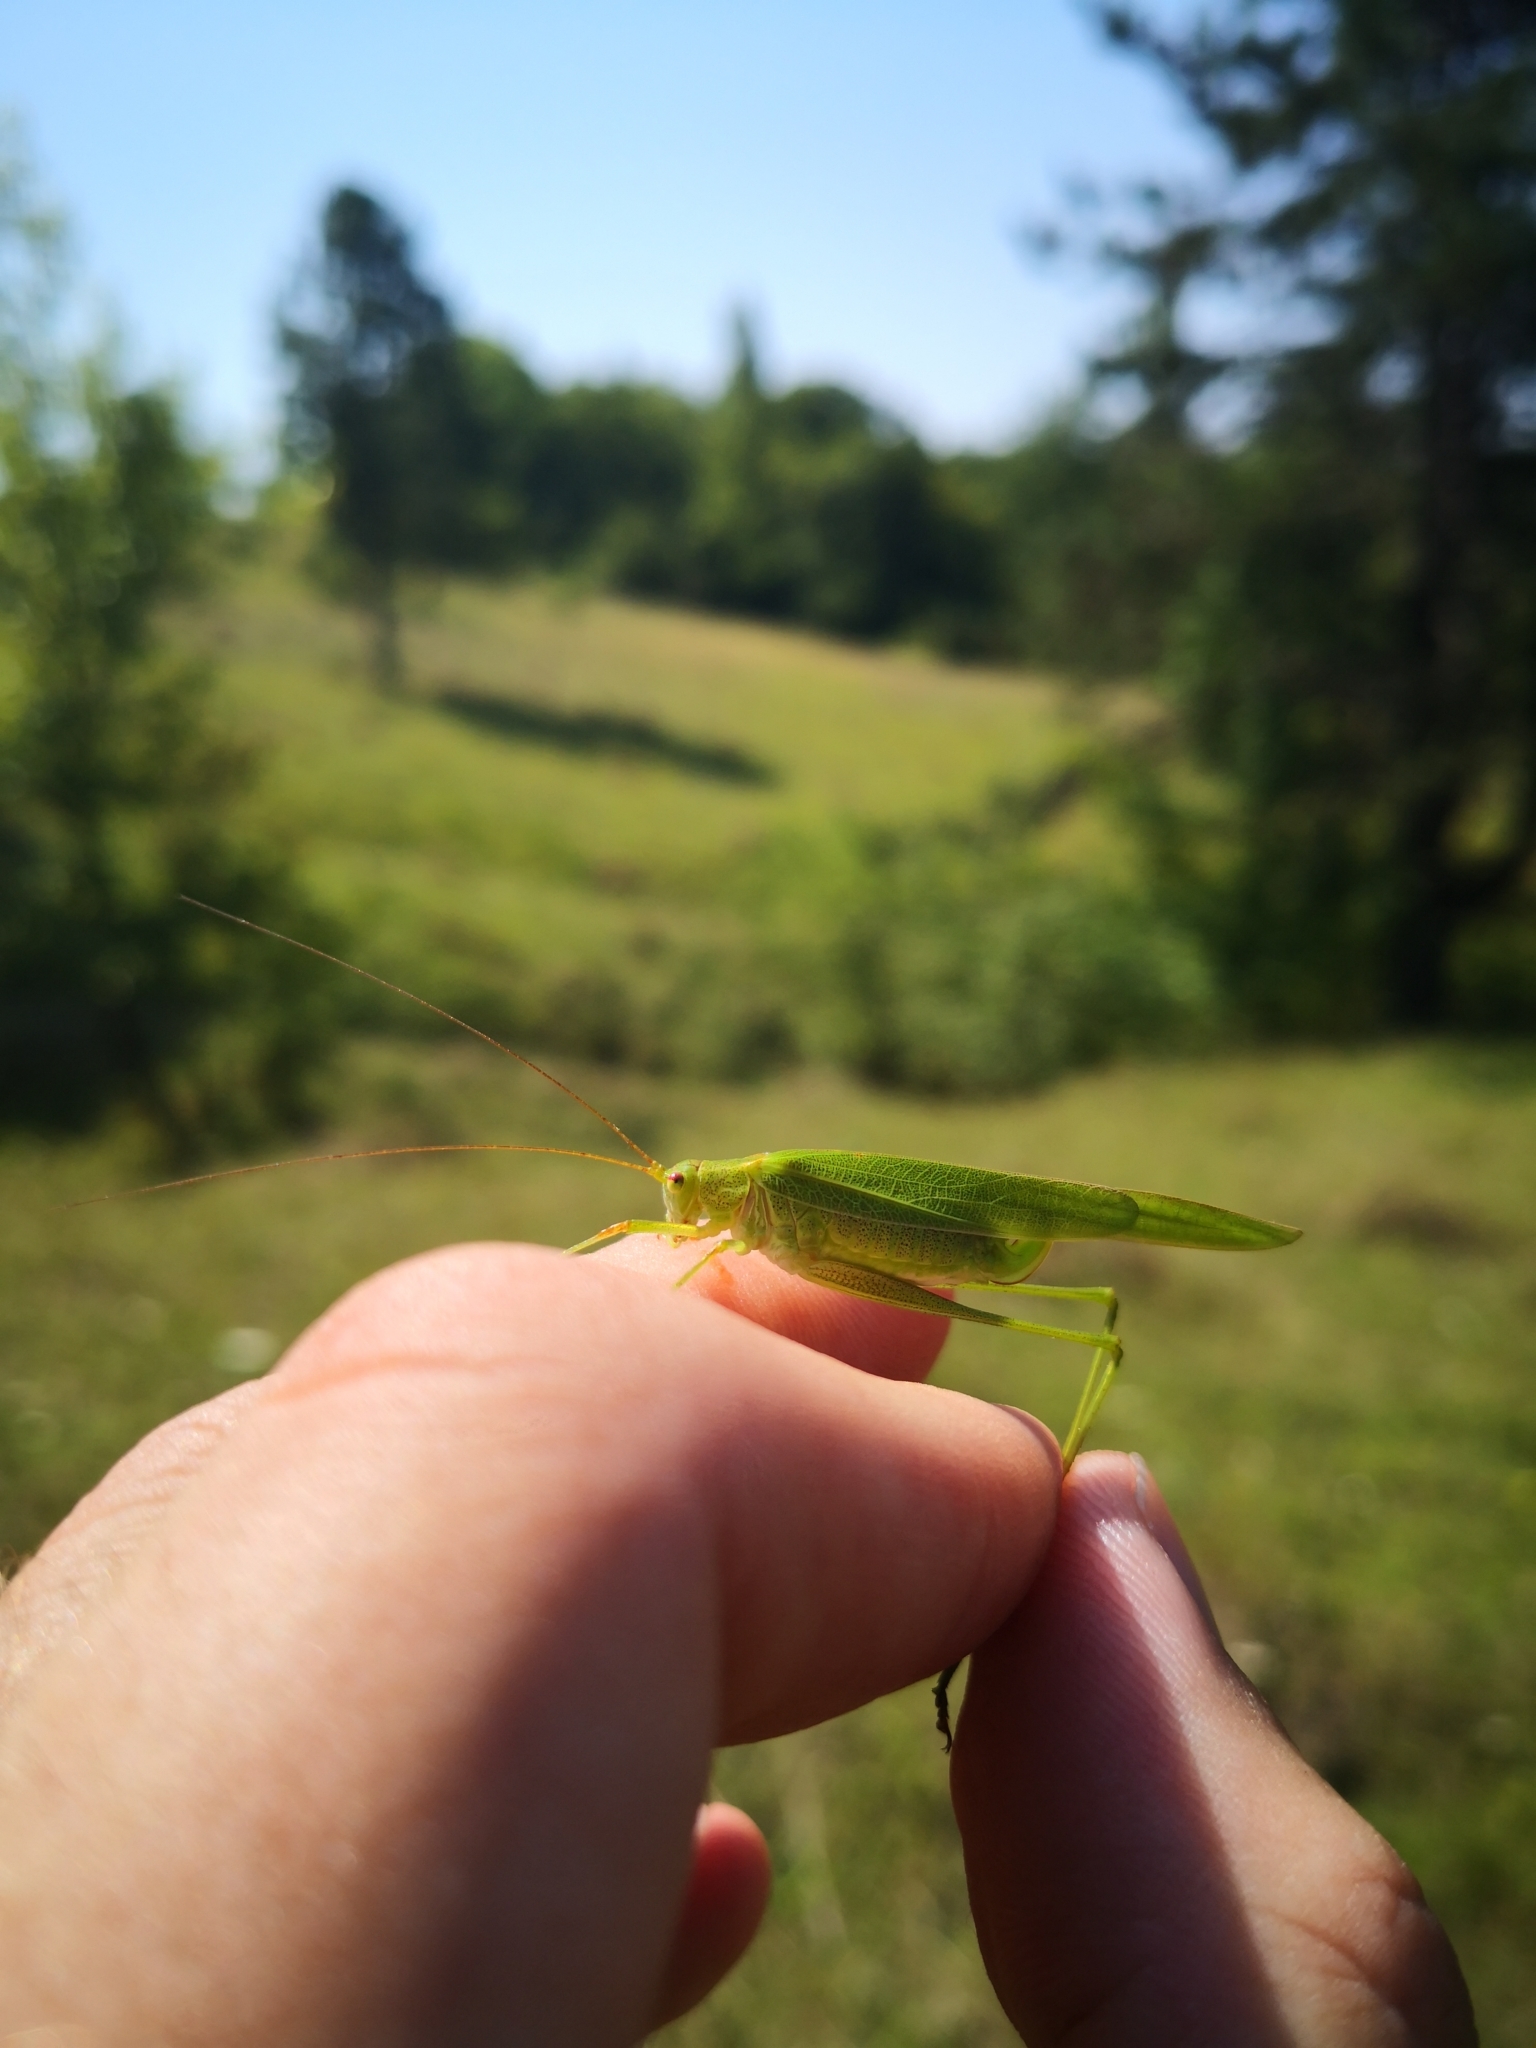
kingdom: Animalia
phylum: Arthropoda
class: Insecta
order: Orthoptera
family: Tettigoniidae
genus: Phaneroptera
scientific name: Phaneroptera falcata
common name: Sickle-bearing bush-cricket
